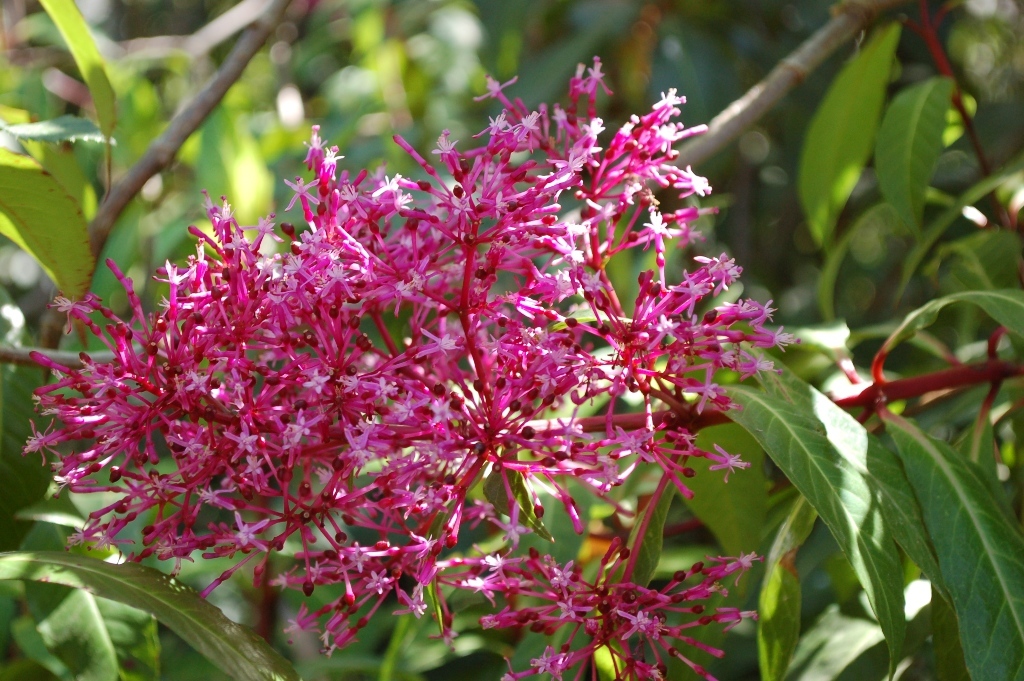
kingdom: Plantae
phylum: Tracheophyta
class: Magnoliopsida
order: Myrtales
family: Onagraceae
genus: Fuchsia
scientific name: Fuchsia paniculata
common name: Shrubby fuchsia
